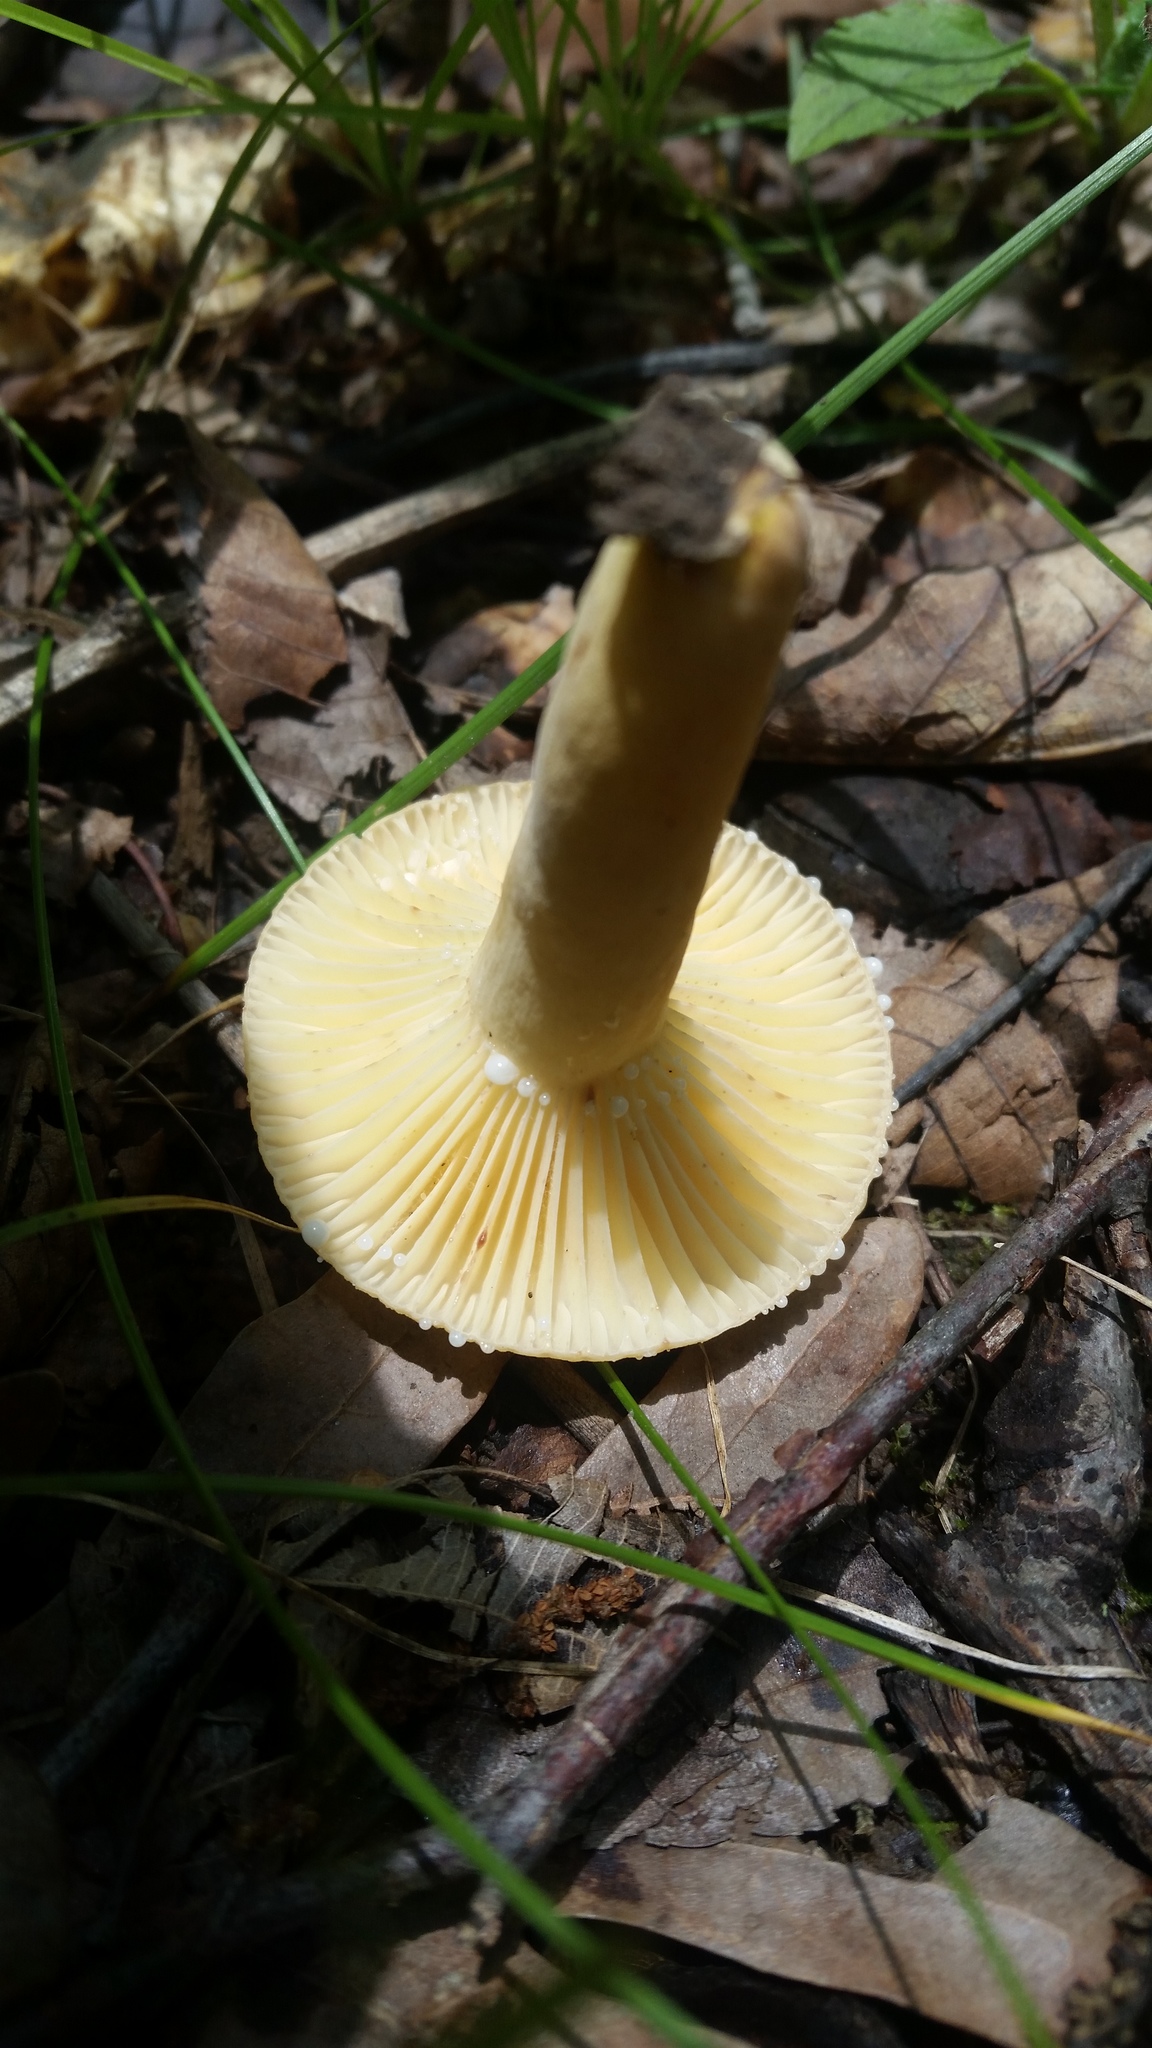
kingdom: Fungi
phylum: Basidiomycota
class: Agaricomycetes
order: Russulales
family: Russulaceae
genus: Lactarius
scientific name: Lactarius hygrophoroides
